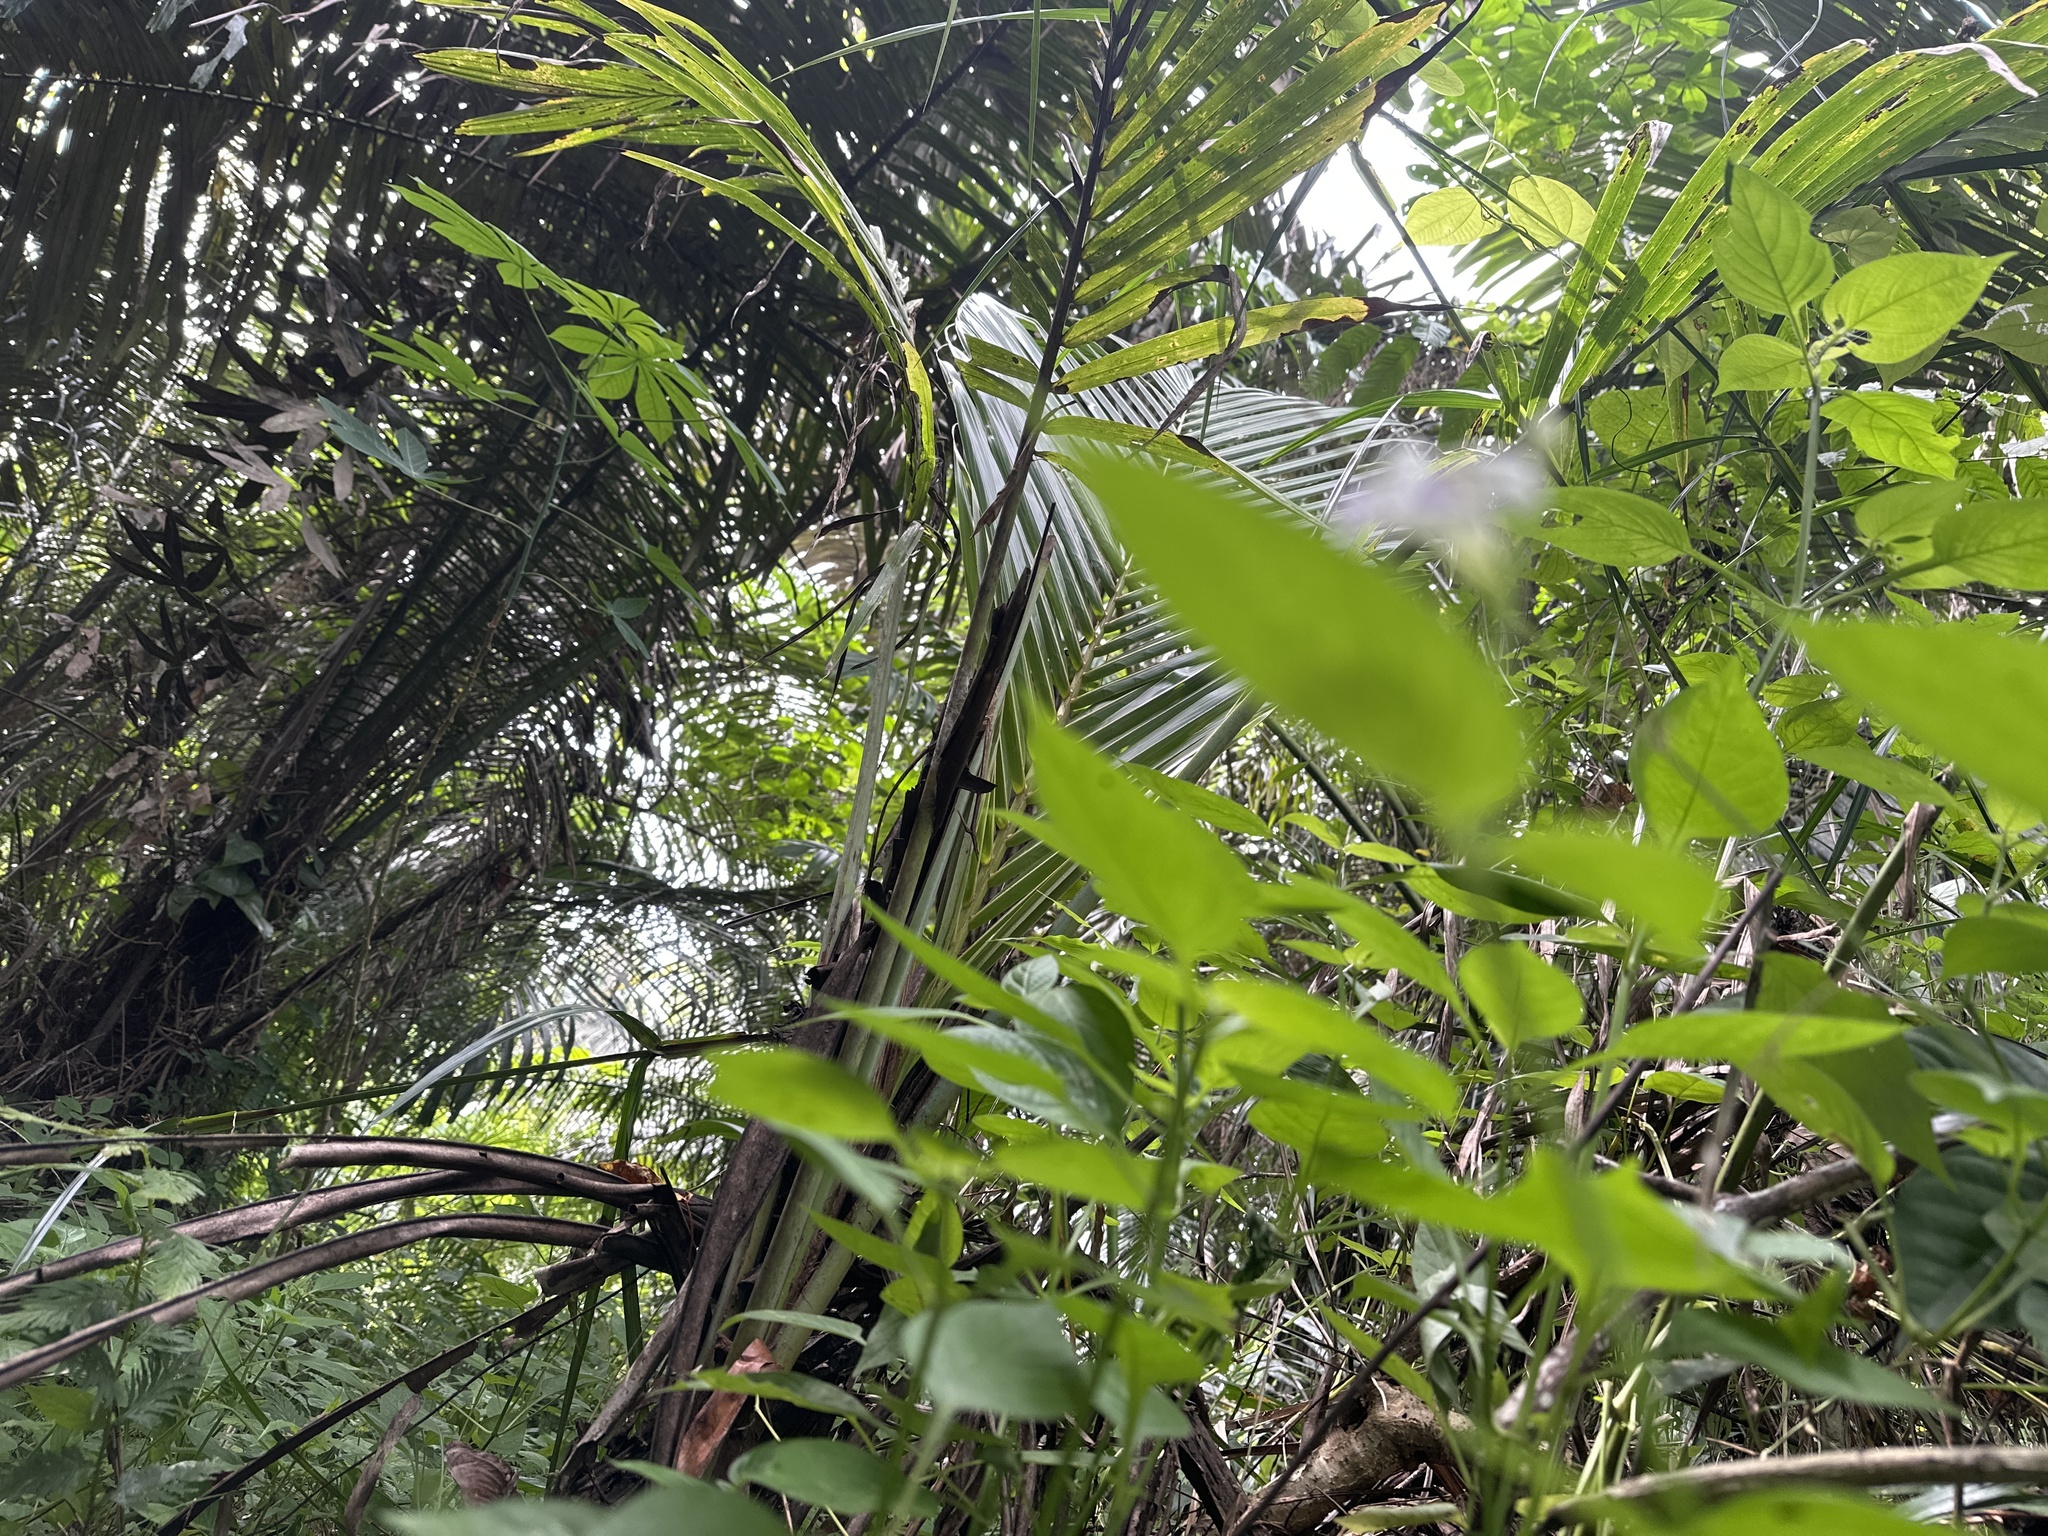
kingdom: Plantae
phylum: Tracheophyta
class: Magnoliopsida
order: Lamiales
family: Acanthaceae
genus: Asystasia
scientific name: Asystasia intrusa
